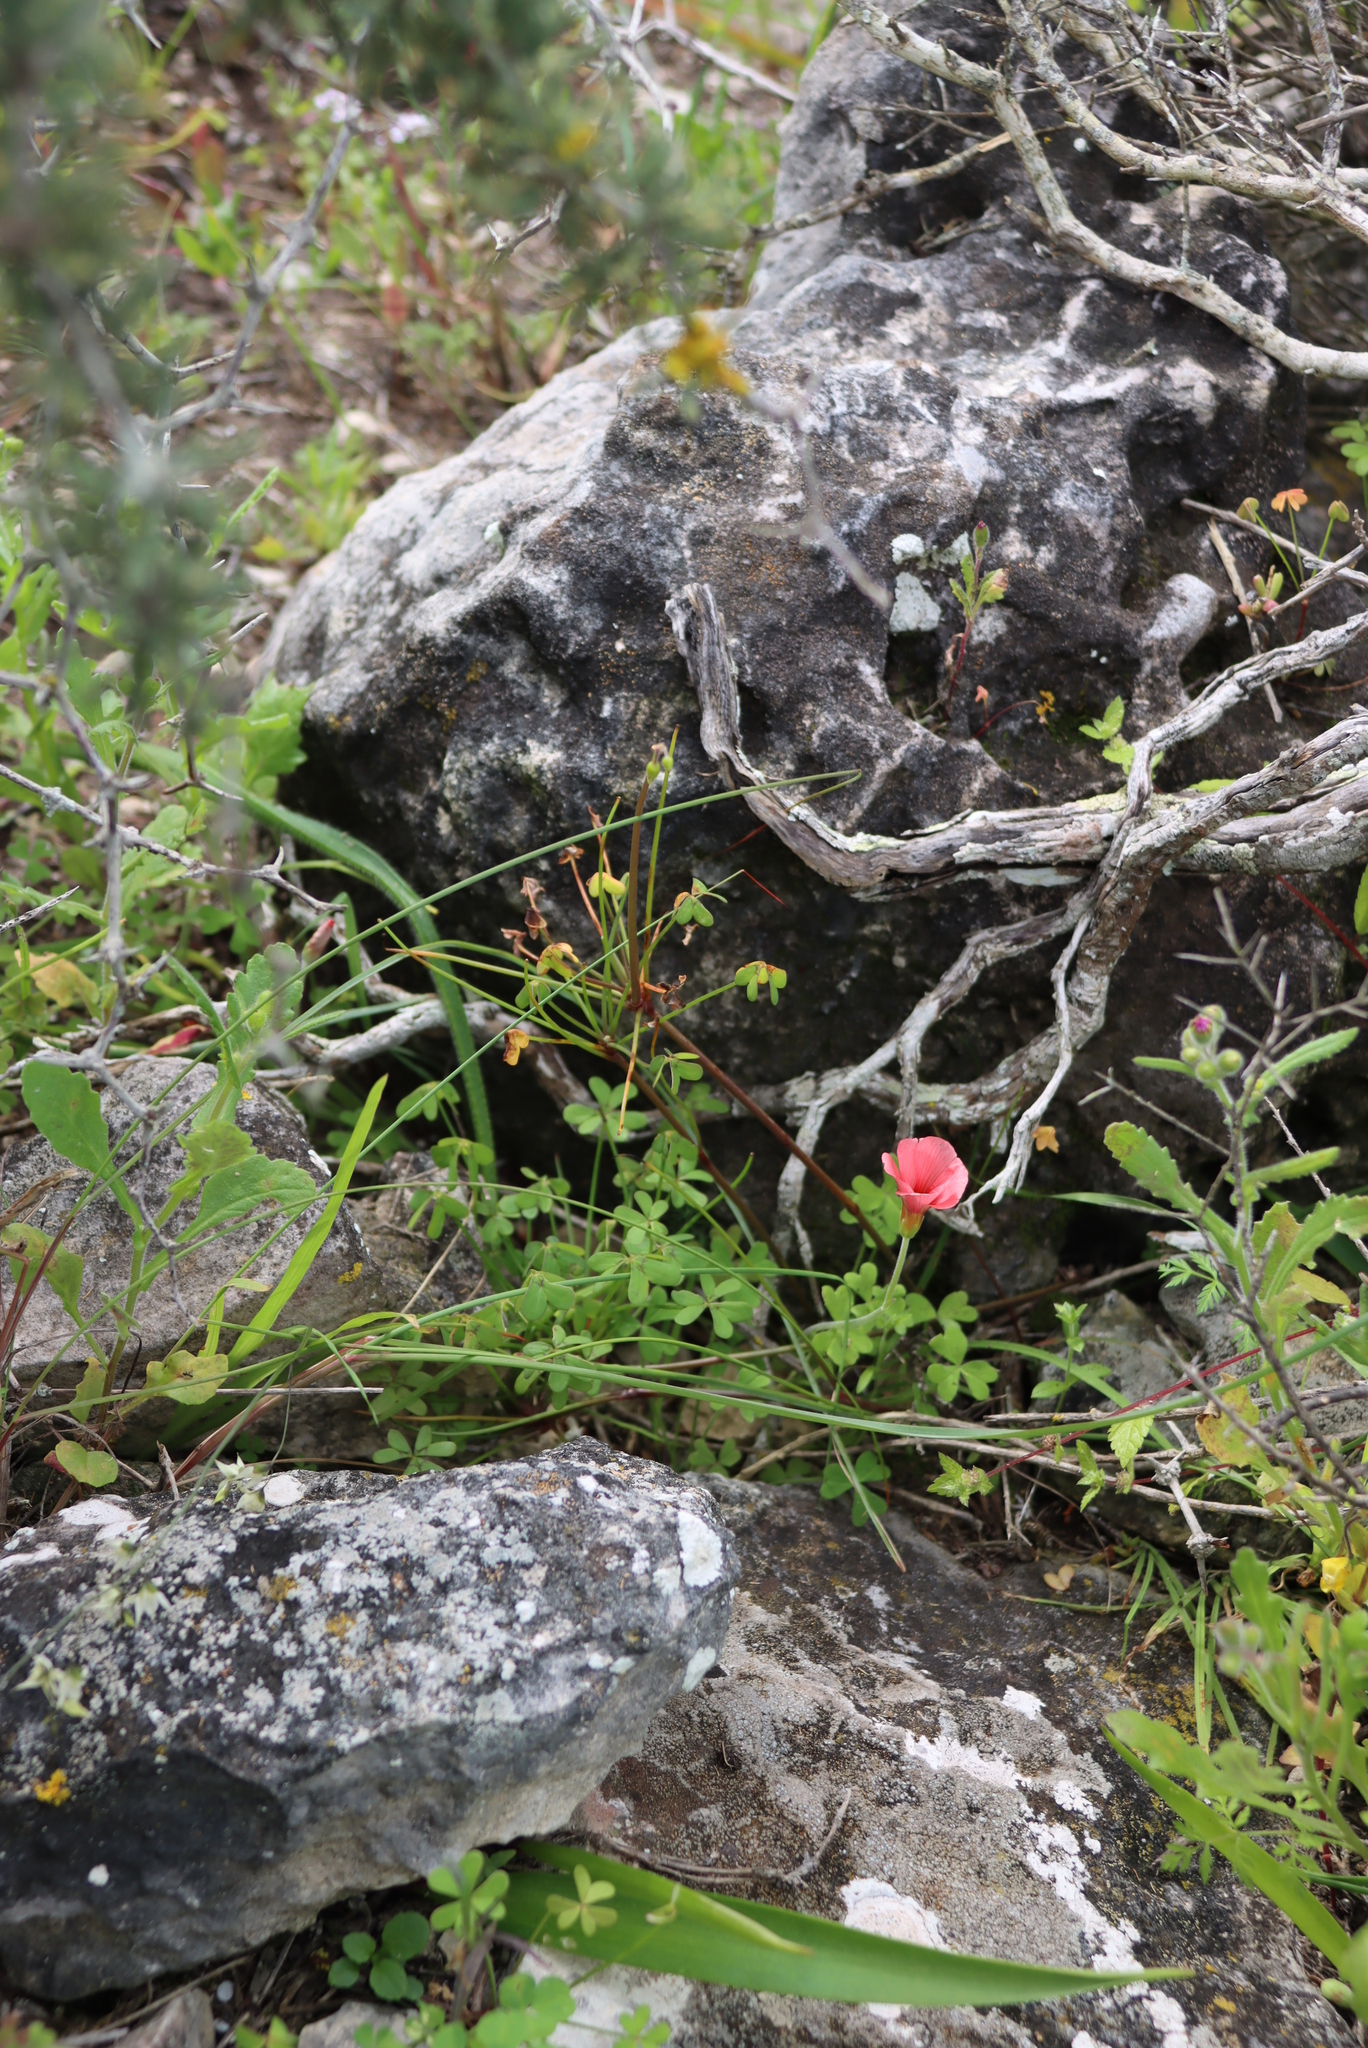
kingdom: Plantae
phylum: Tracheophyta
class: Magnoliopsida
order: Oxalidales
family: Oxalidaceae
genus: Oxalis
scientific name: Oxalis obtusa
